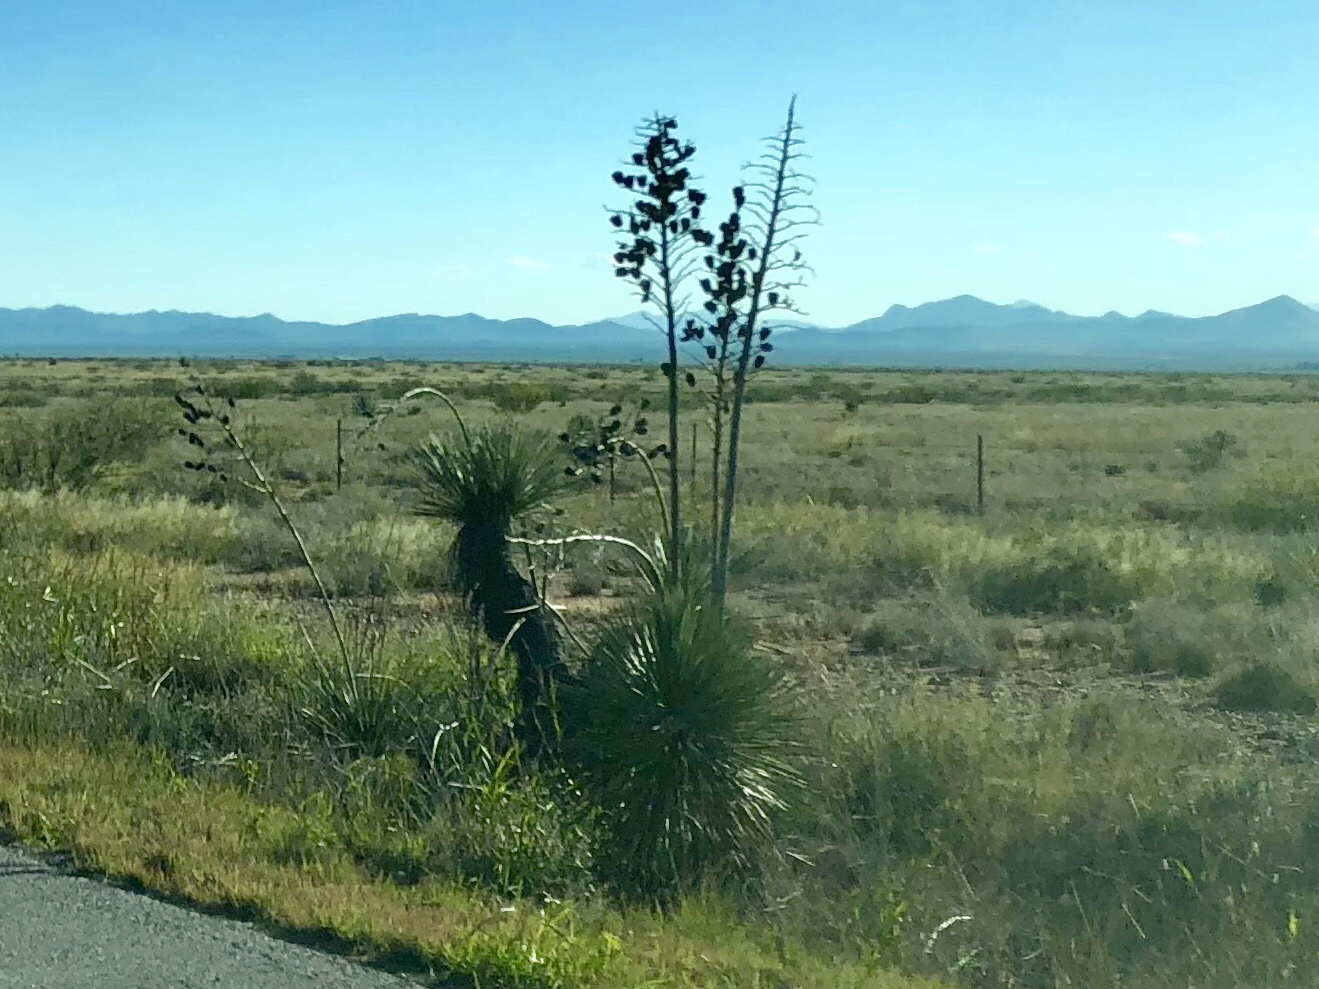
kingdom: Plantae
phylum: Tracheophyta
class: Liliopsida
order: Asparagales
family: Asparagaceae
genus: Yucca
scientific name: Yucca elata
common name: Palmella
